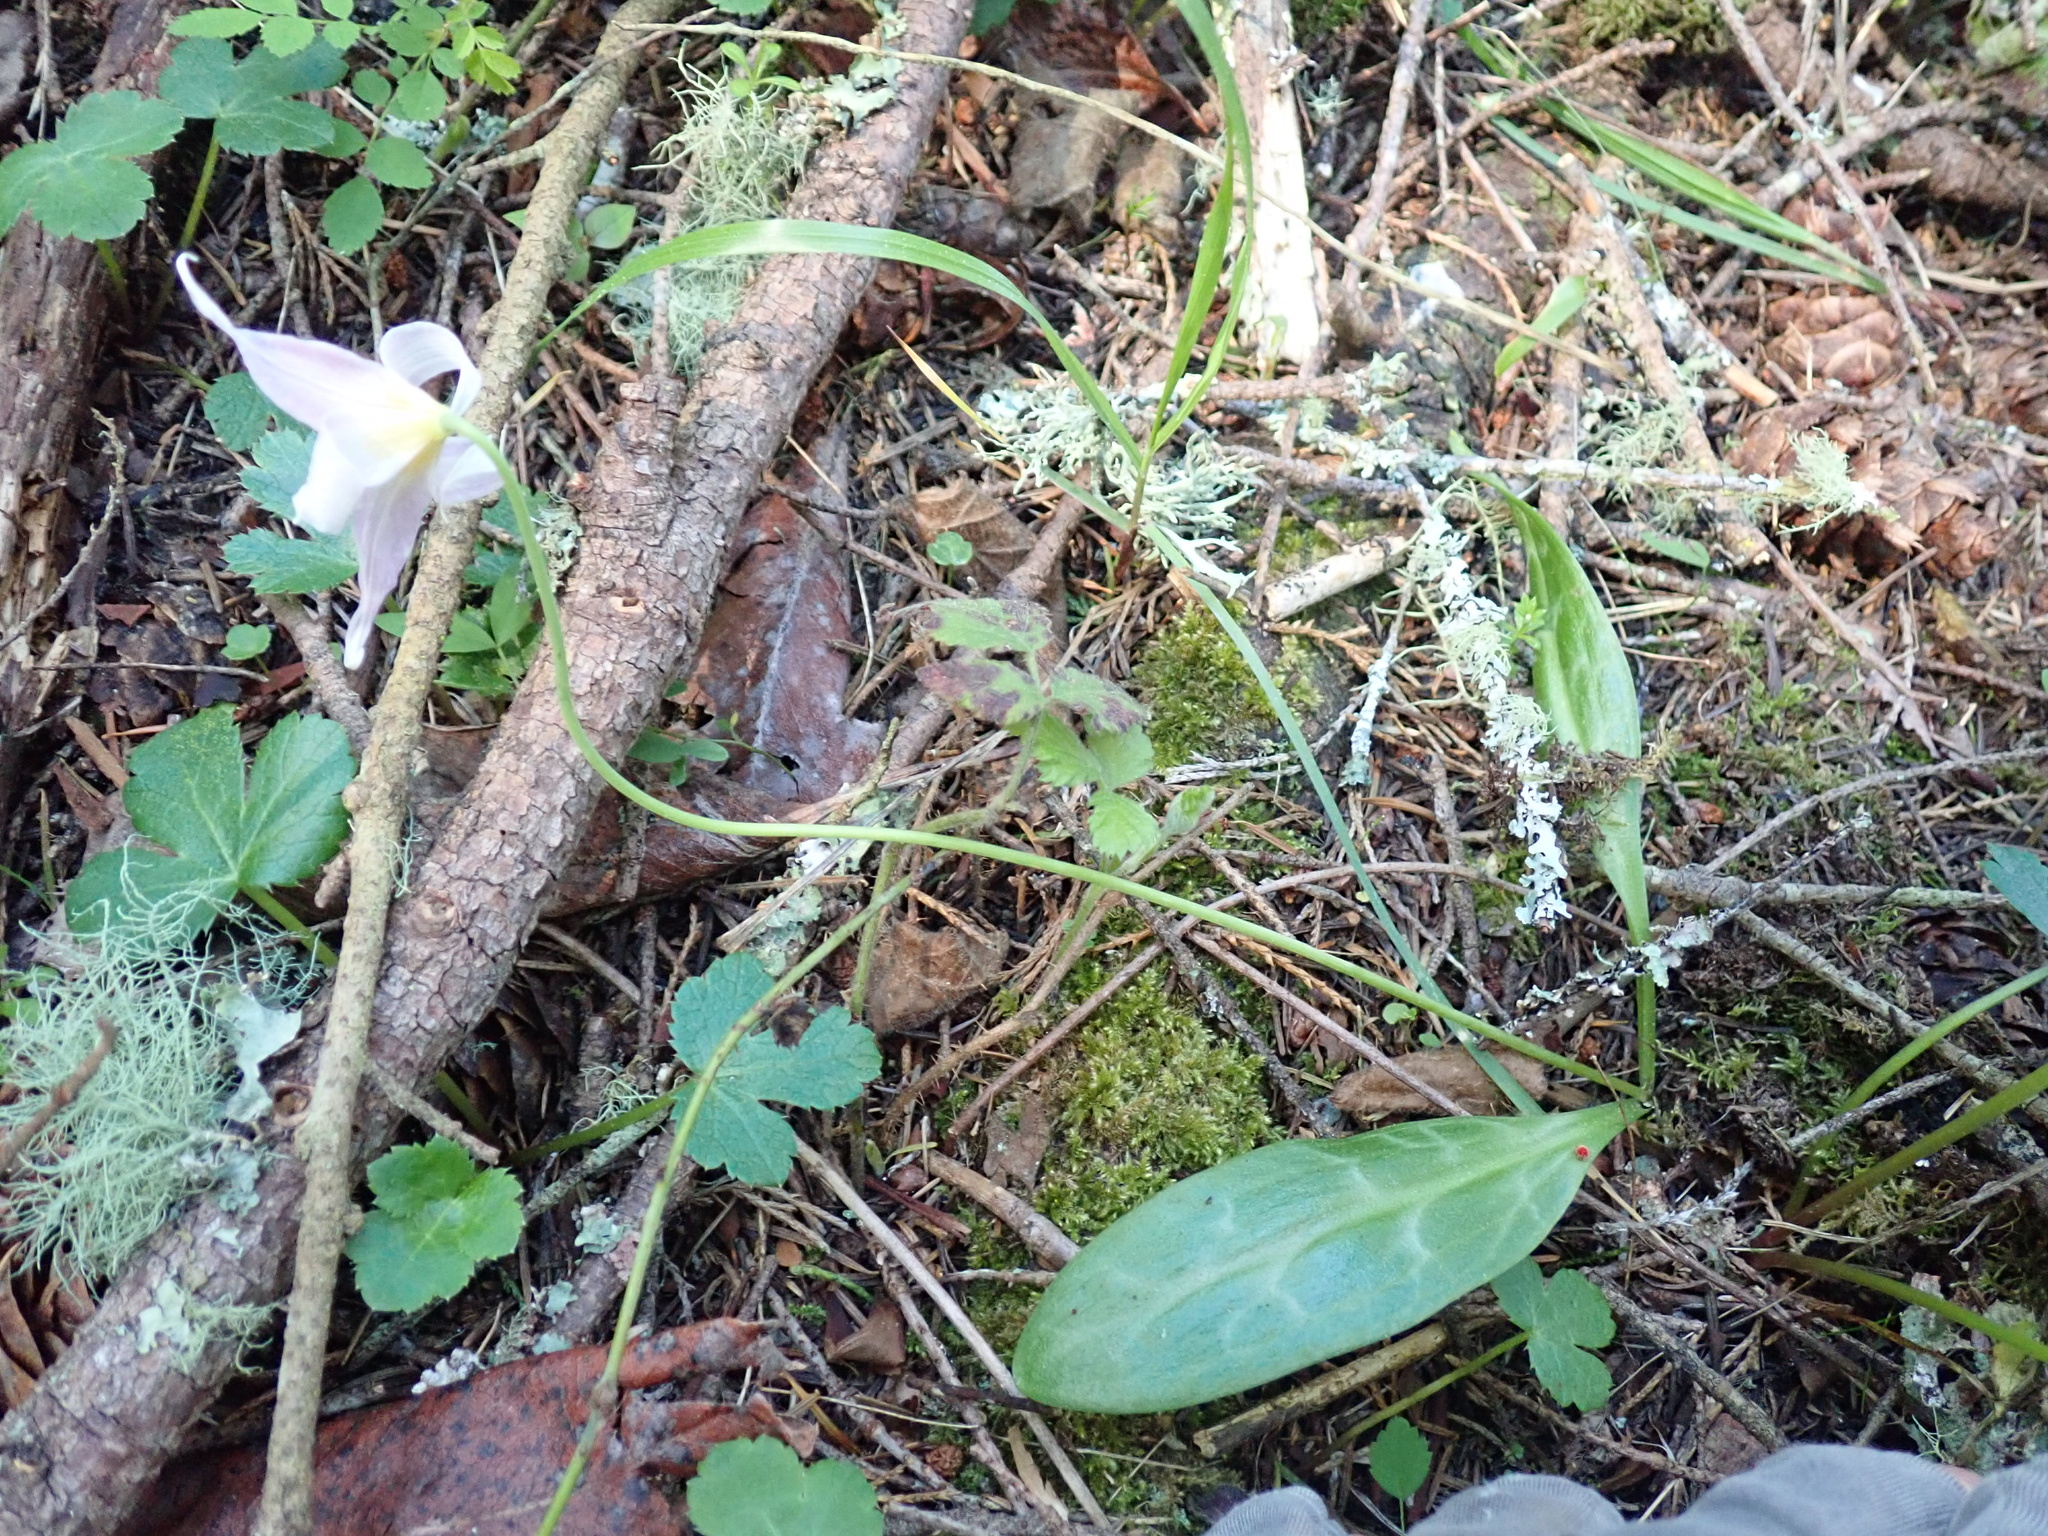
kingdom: Plantae
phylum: Tracheophyta
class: Liliopsida
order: Liliales
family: Liliaceae
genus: Erythronium
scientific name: Erythronium oregonum
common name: Giant adder's-tongue
